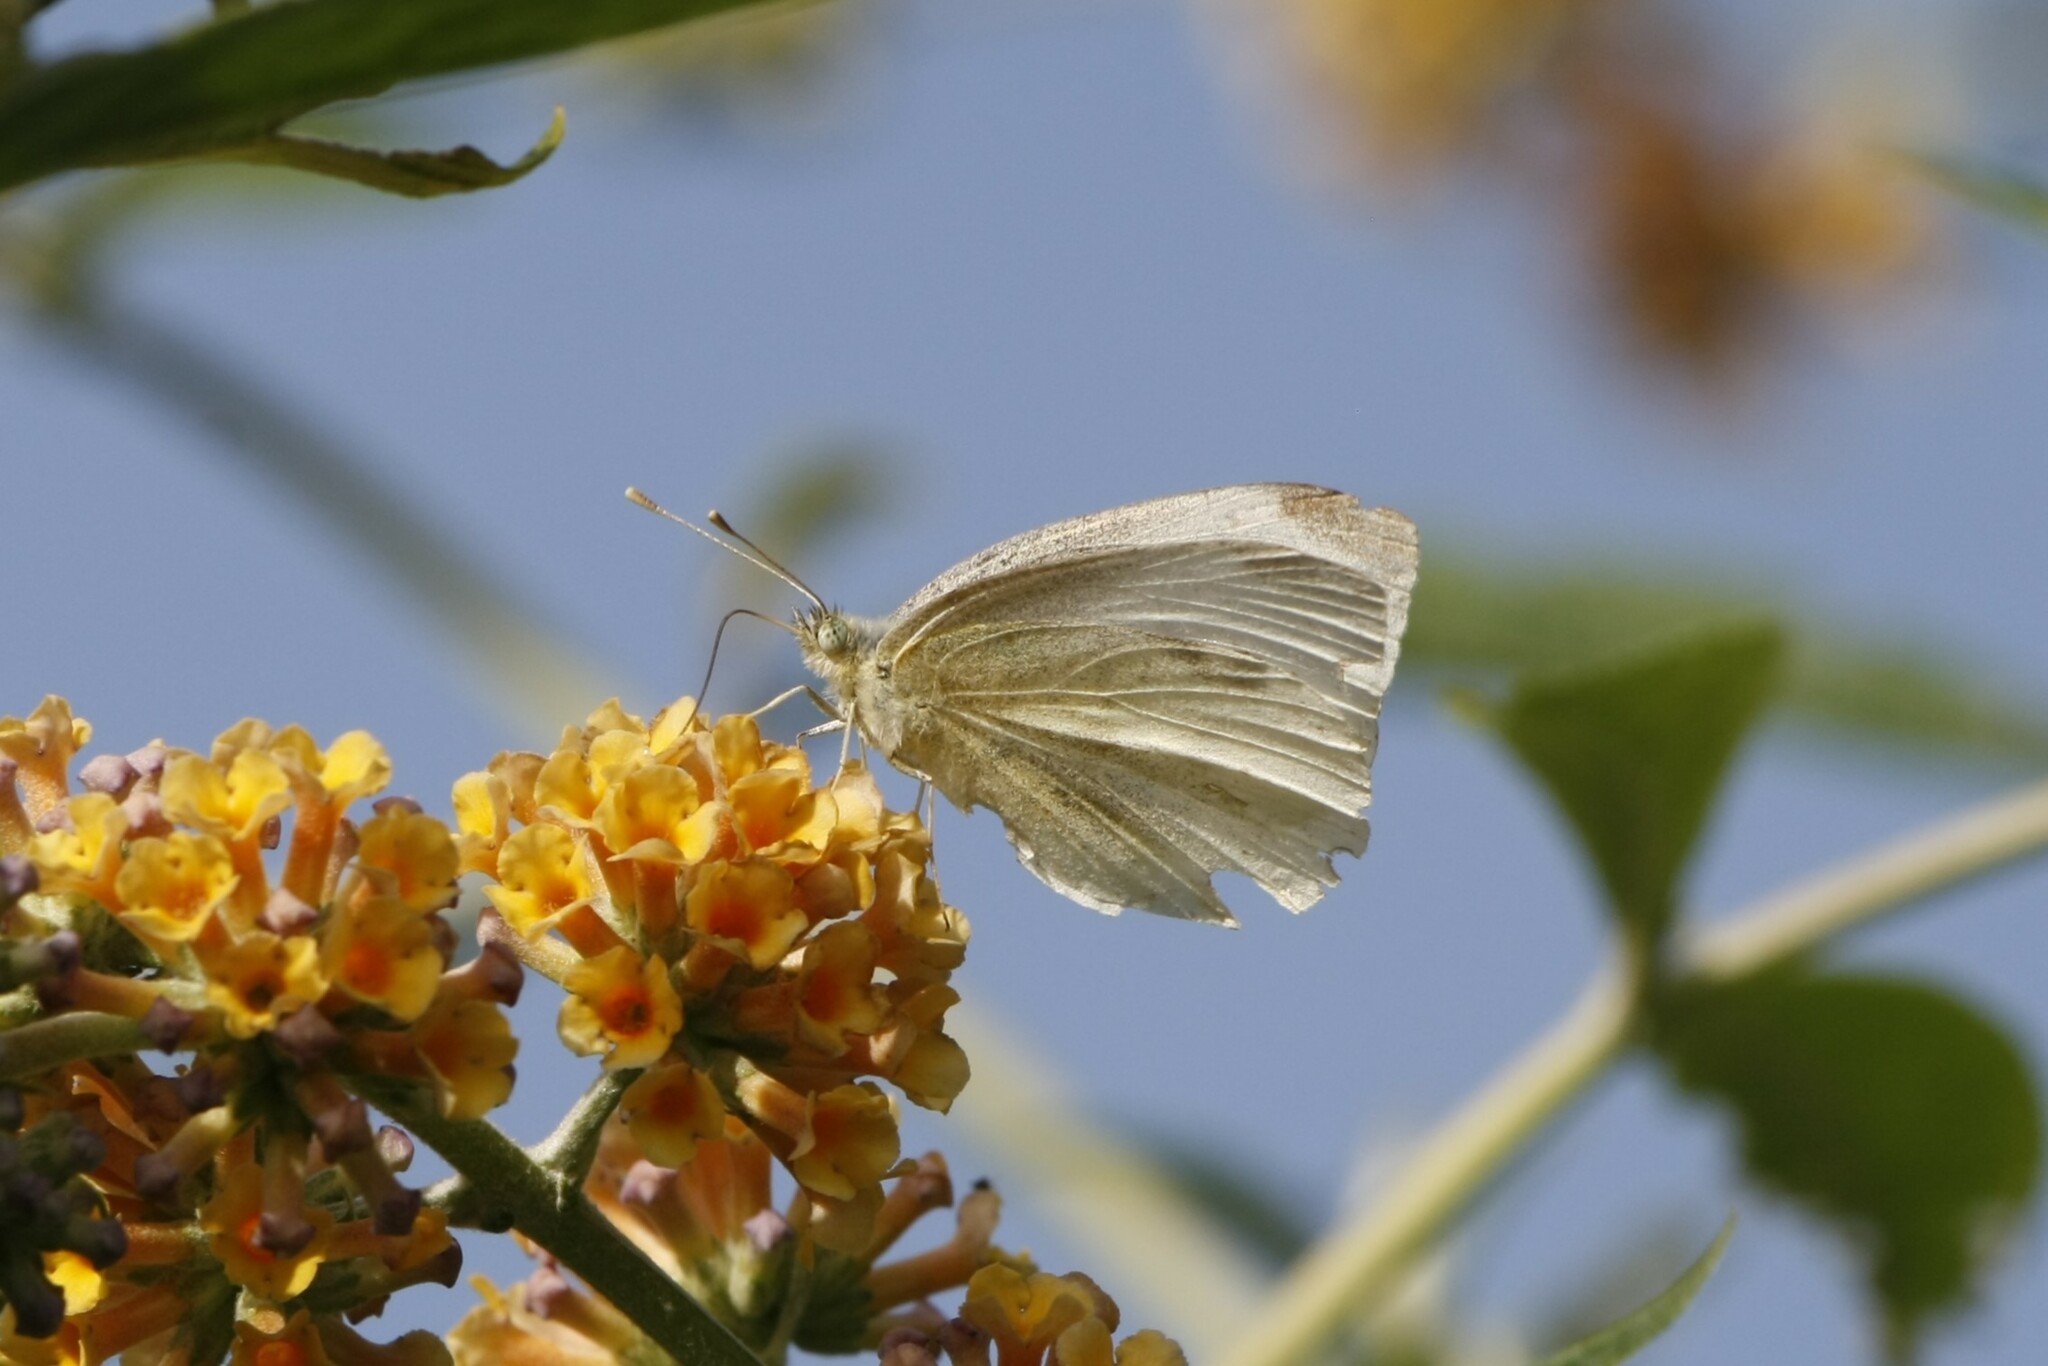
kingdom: Animalia
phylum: Arthropoda
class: Insecta
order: Lepidoptera
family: Pieridae
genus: Pieris
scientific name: Pieris rapae
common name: Small white
